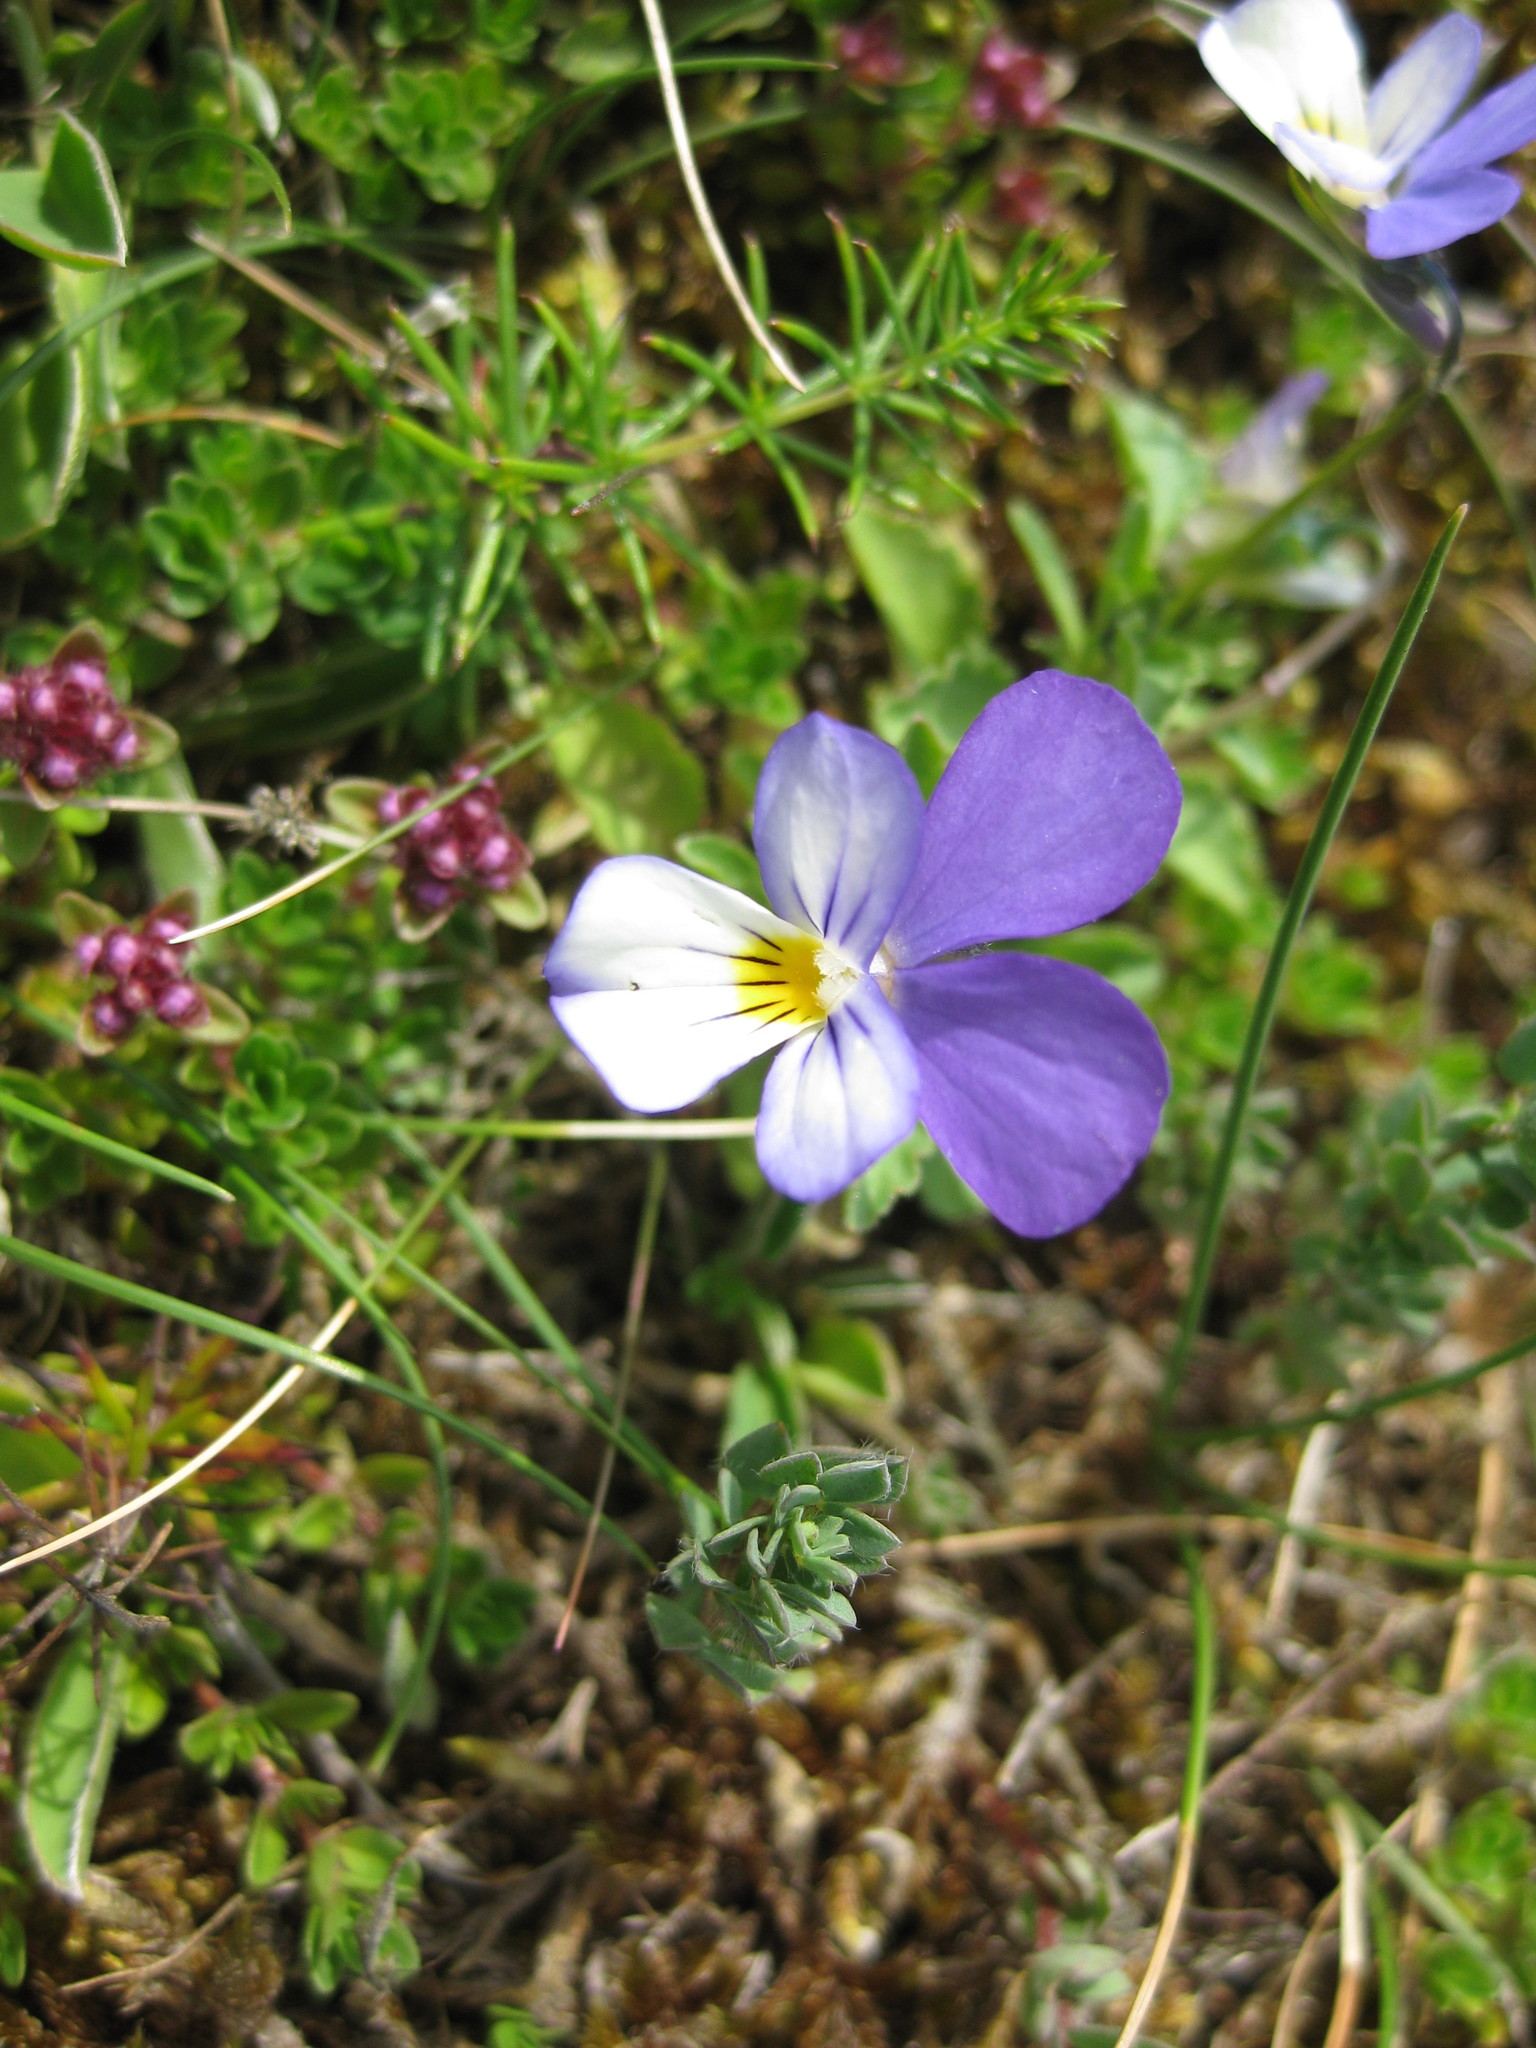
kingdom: Plantae
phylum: Tracheophyta
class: Magnoliopsida
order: Malpighiales
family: Violaceae
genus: Viola
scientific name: Viola tricolor
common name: Pansy
